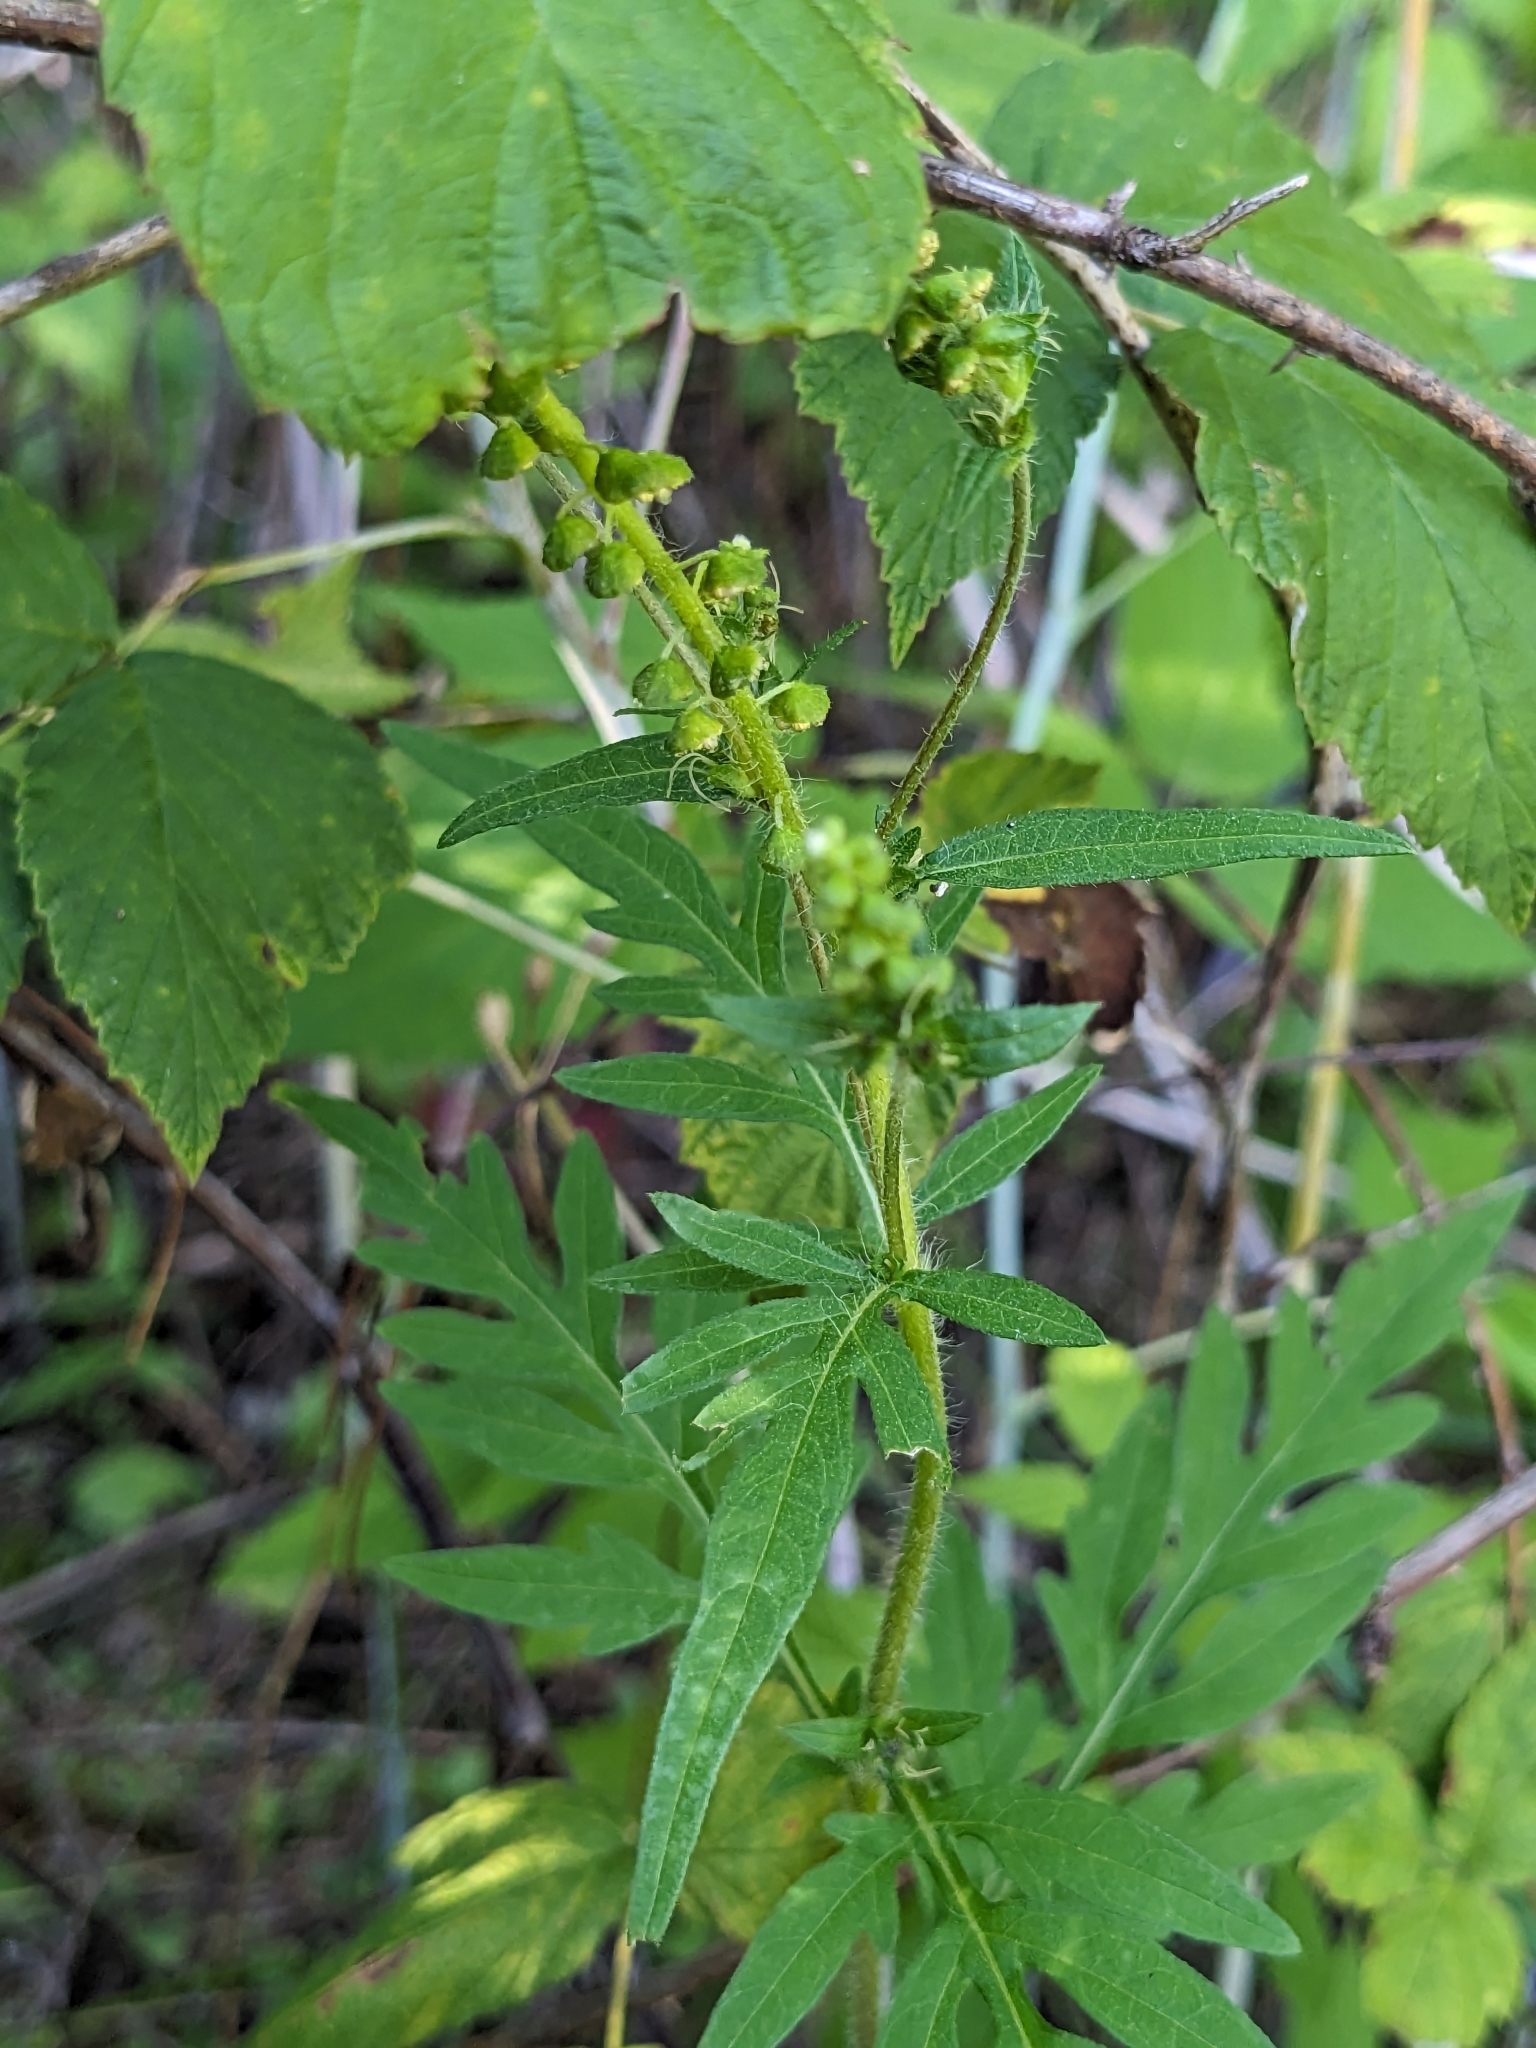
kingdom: Plantae
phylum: Tracheophyta
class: Magnoliopsida
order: Asterales
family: Asteraceae
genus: Ambrosia
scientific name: Ambrosia artemisiifolia
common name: Annual ragweed
